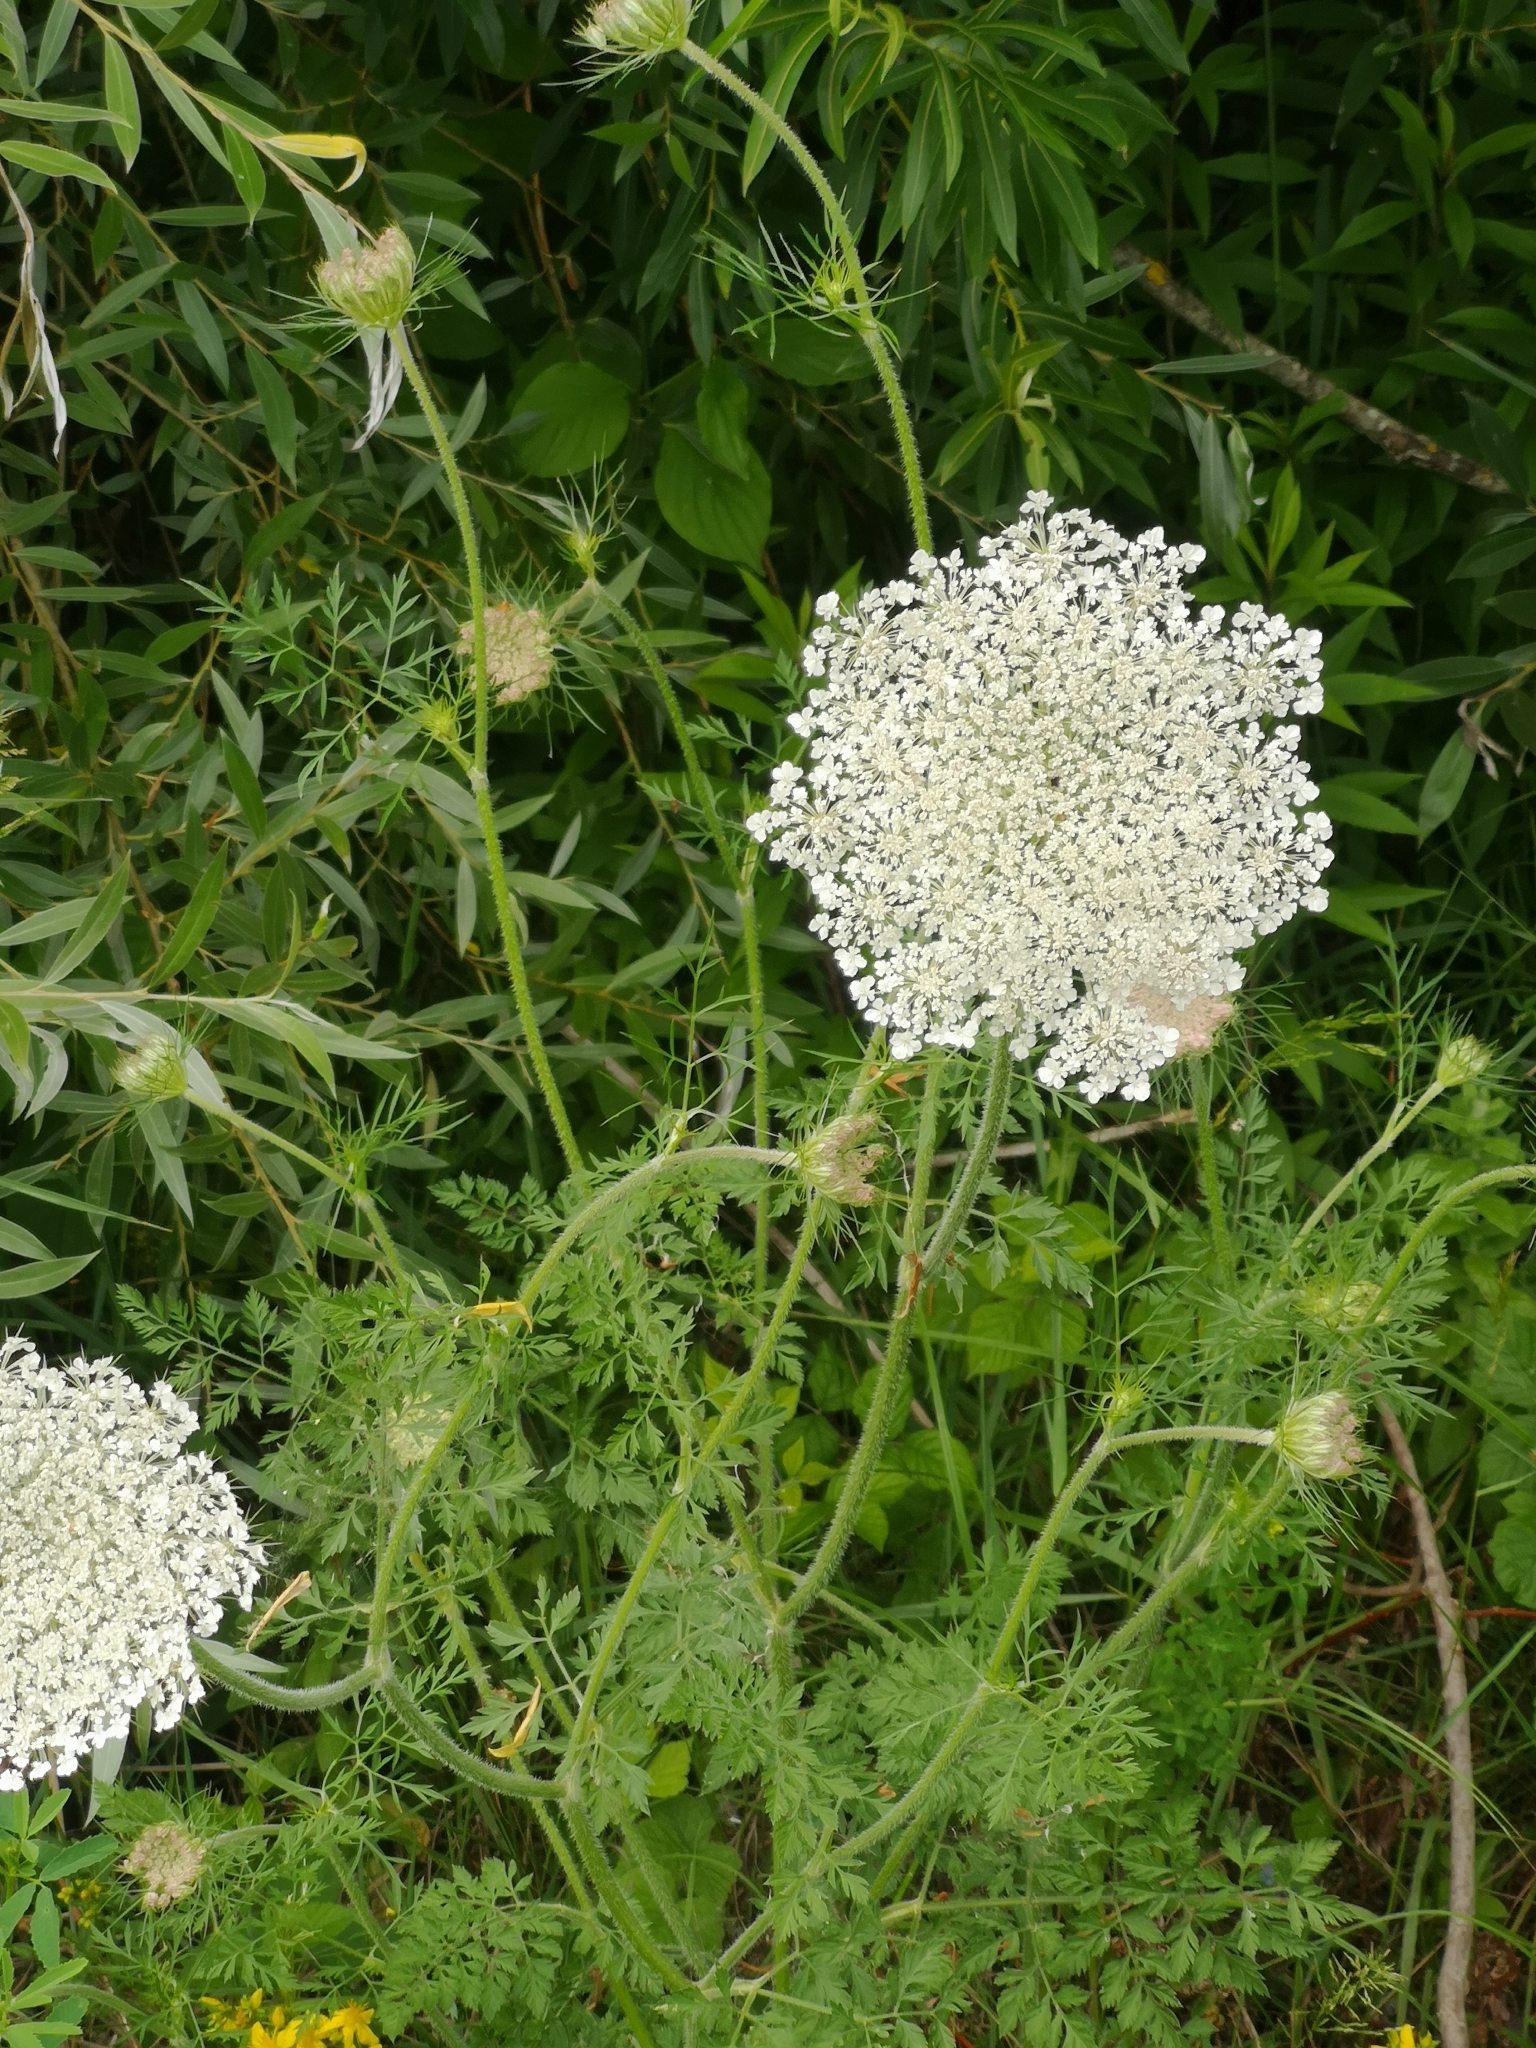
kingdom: Plantae
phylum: Tracheophyta
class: Magnoliopsida
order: Apiales
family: Apiaceae
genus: Daucus
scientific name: Daucus carota
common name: Wild carrot
